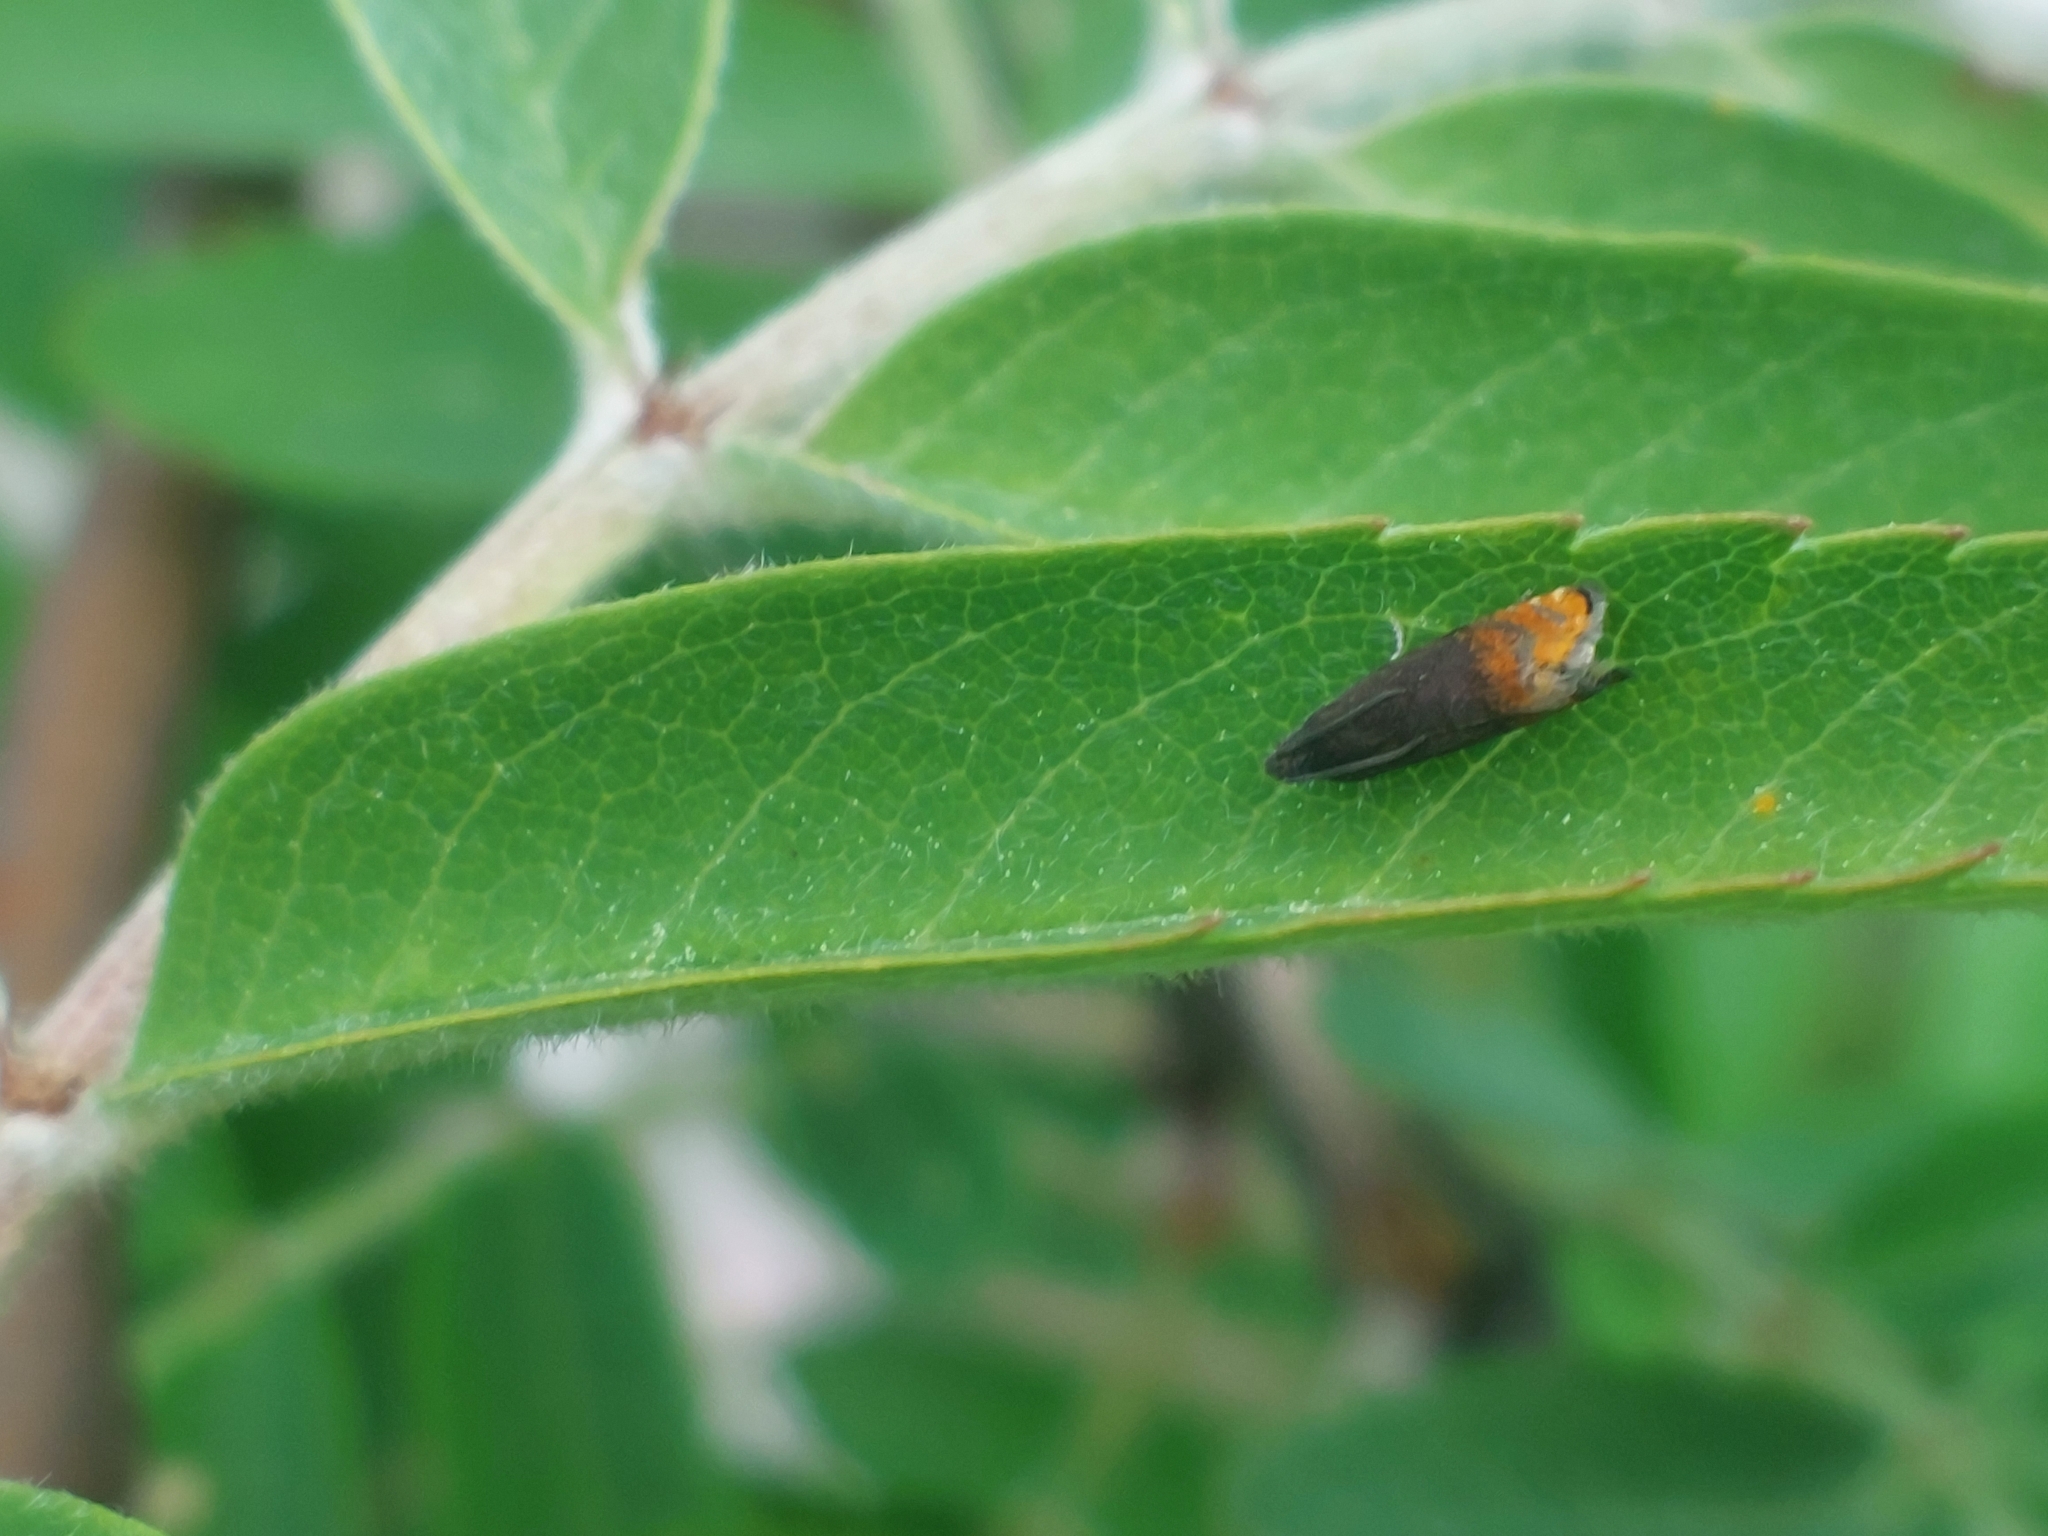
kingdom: Animalia
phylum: Arthropoda
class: Insecta
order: Lepidoptera
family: Tortricidae
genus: Pammene
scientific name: Pammene rhediella
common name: Fruitlet-mining tortrix
